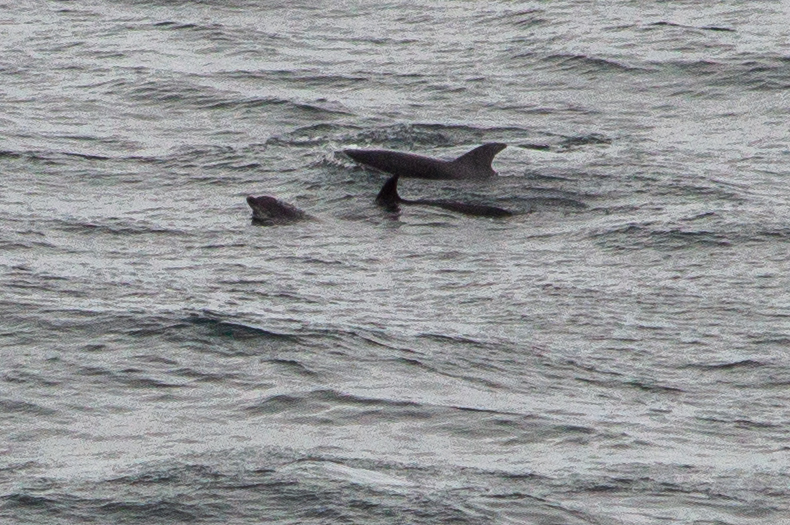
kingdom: Animalia
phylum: Chordata
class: Mammalia
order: Cetacea
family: Delphinidae
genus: Tursiops
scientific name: Tursiops truncatus
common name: Bottlenose dolphin
